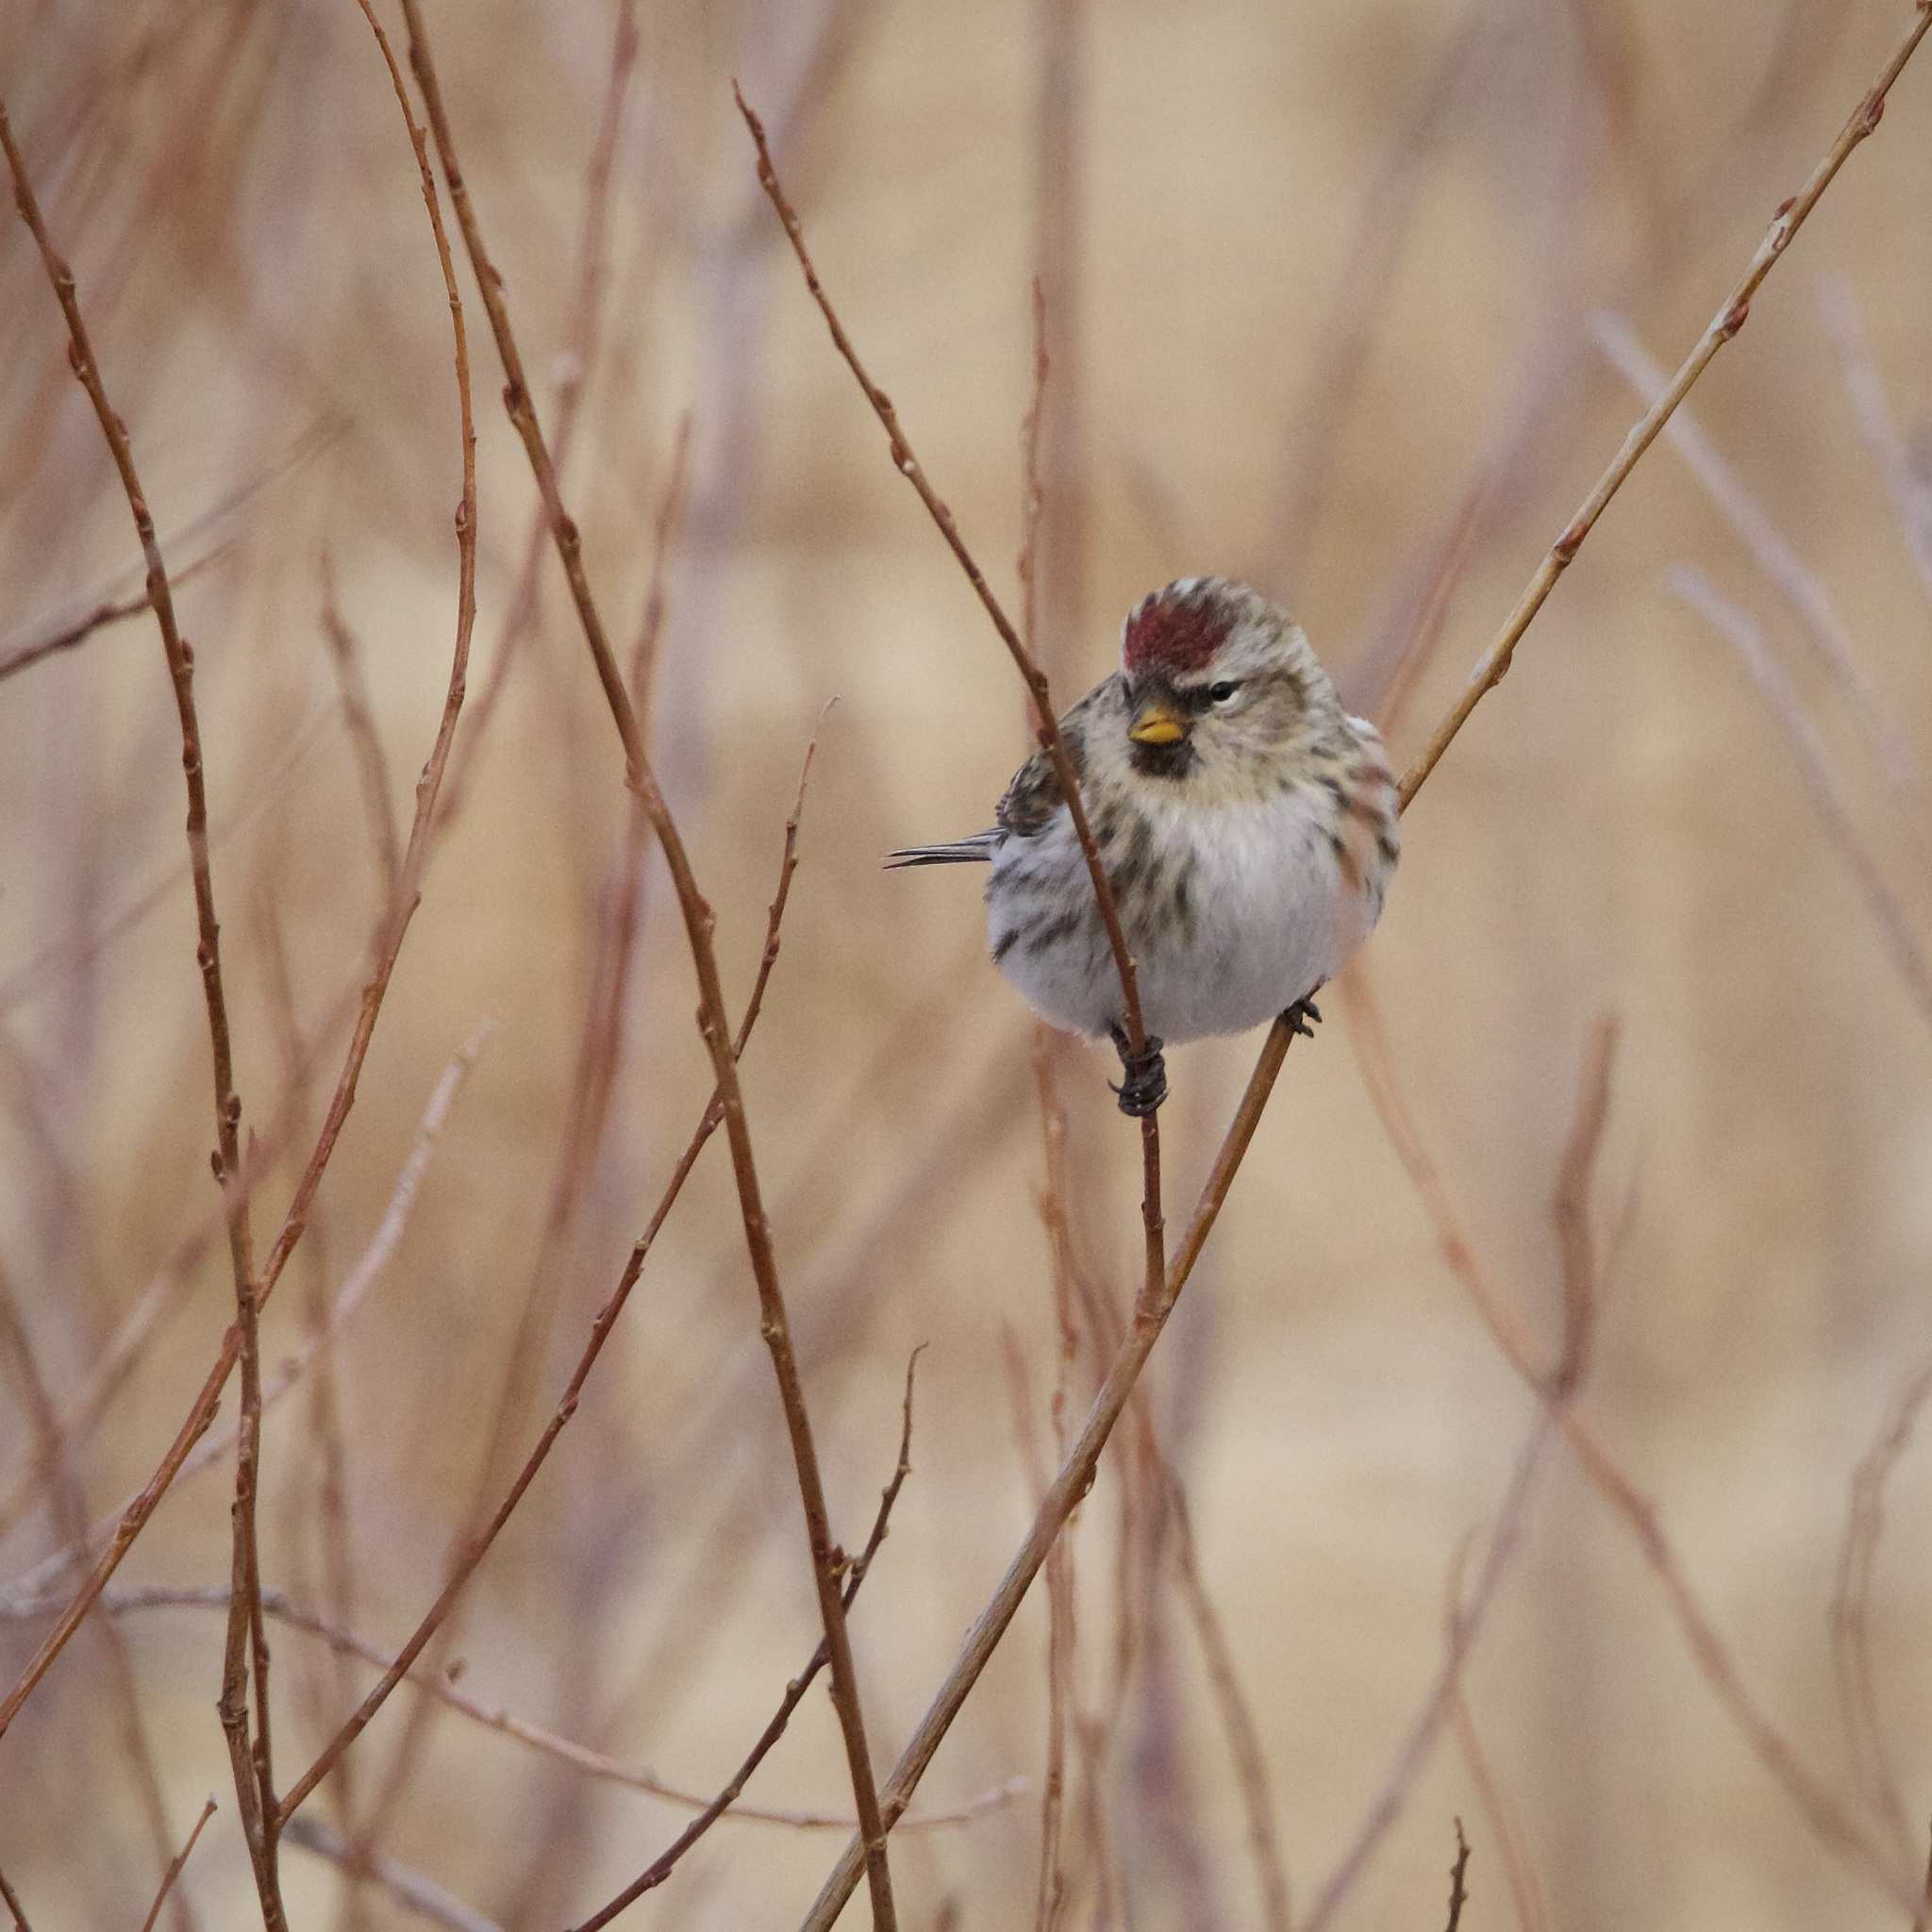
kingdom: Animalia
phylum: Chordata
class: Aves
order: Passeriformes
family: Fringillidae
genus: Acanthis
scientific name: Acanthis flammea
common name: Common redpoll
